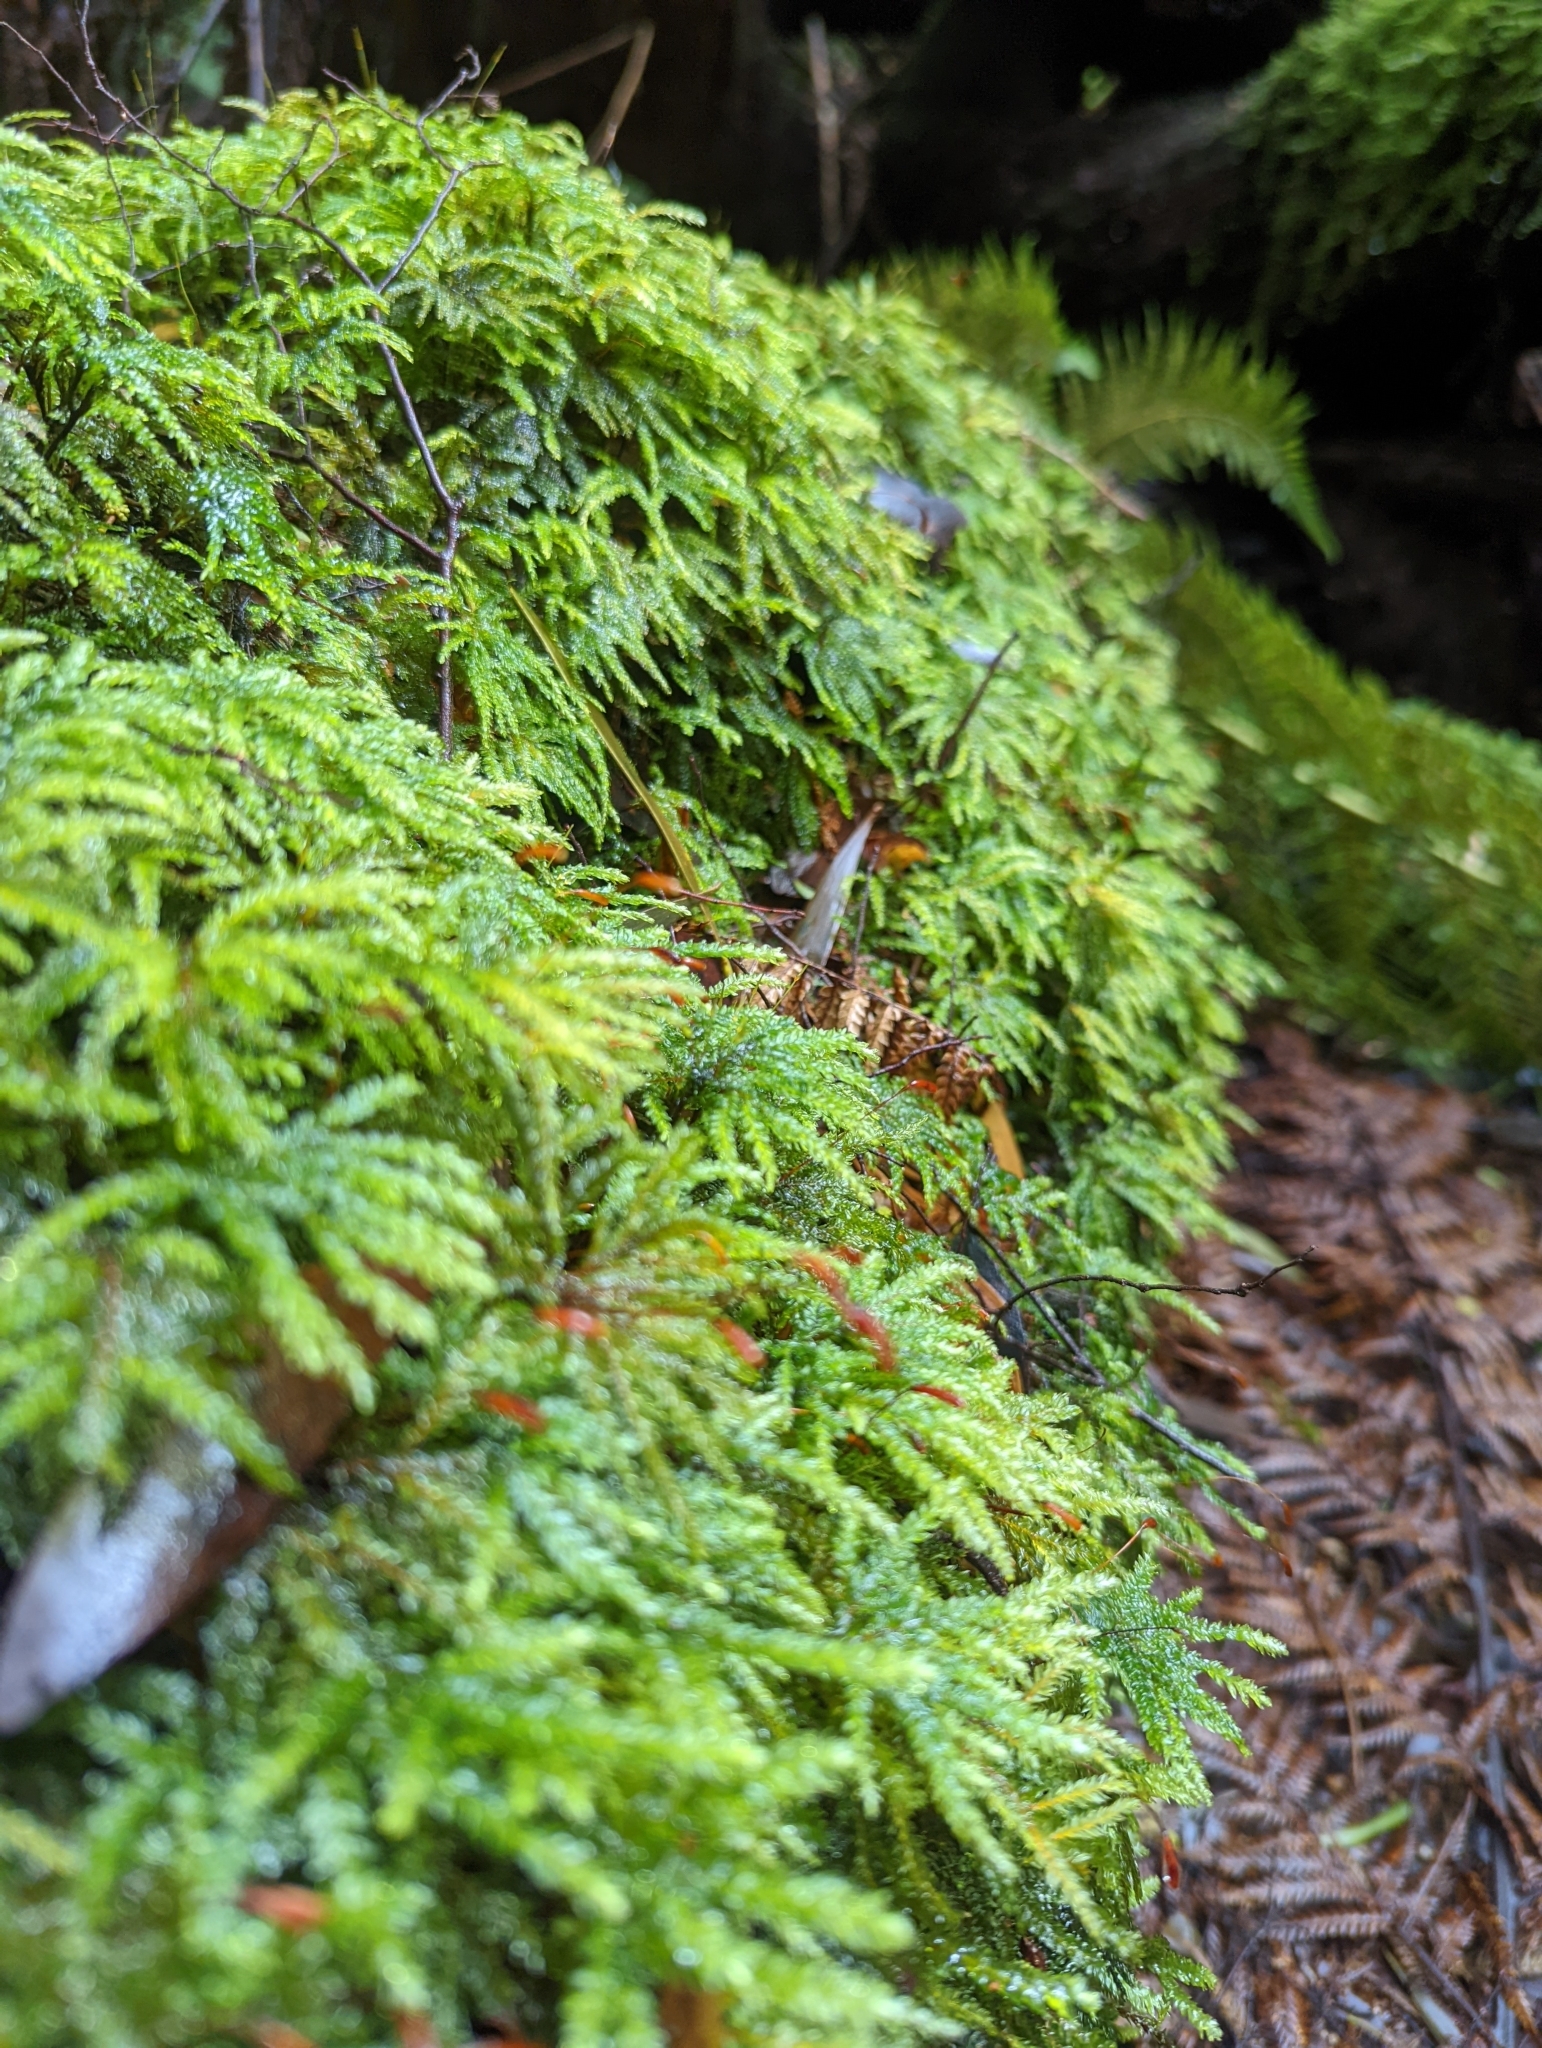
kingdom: Plantae
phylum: Bryophyta
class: Bryopsida
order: Hypnodendrales
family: Spiridentaceae
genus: Mniodendron
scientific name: Mniodendron comosum
